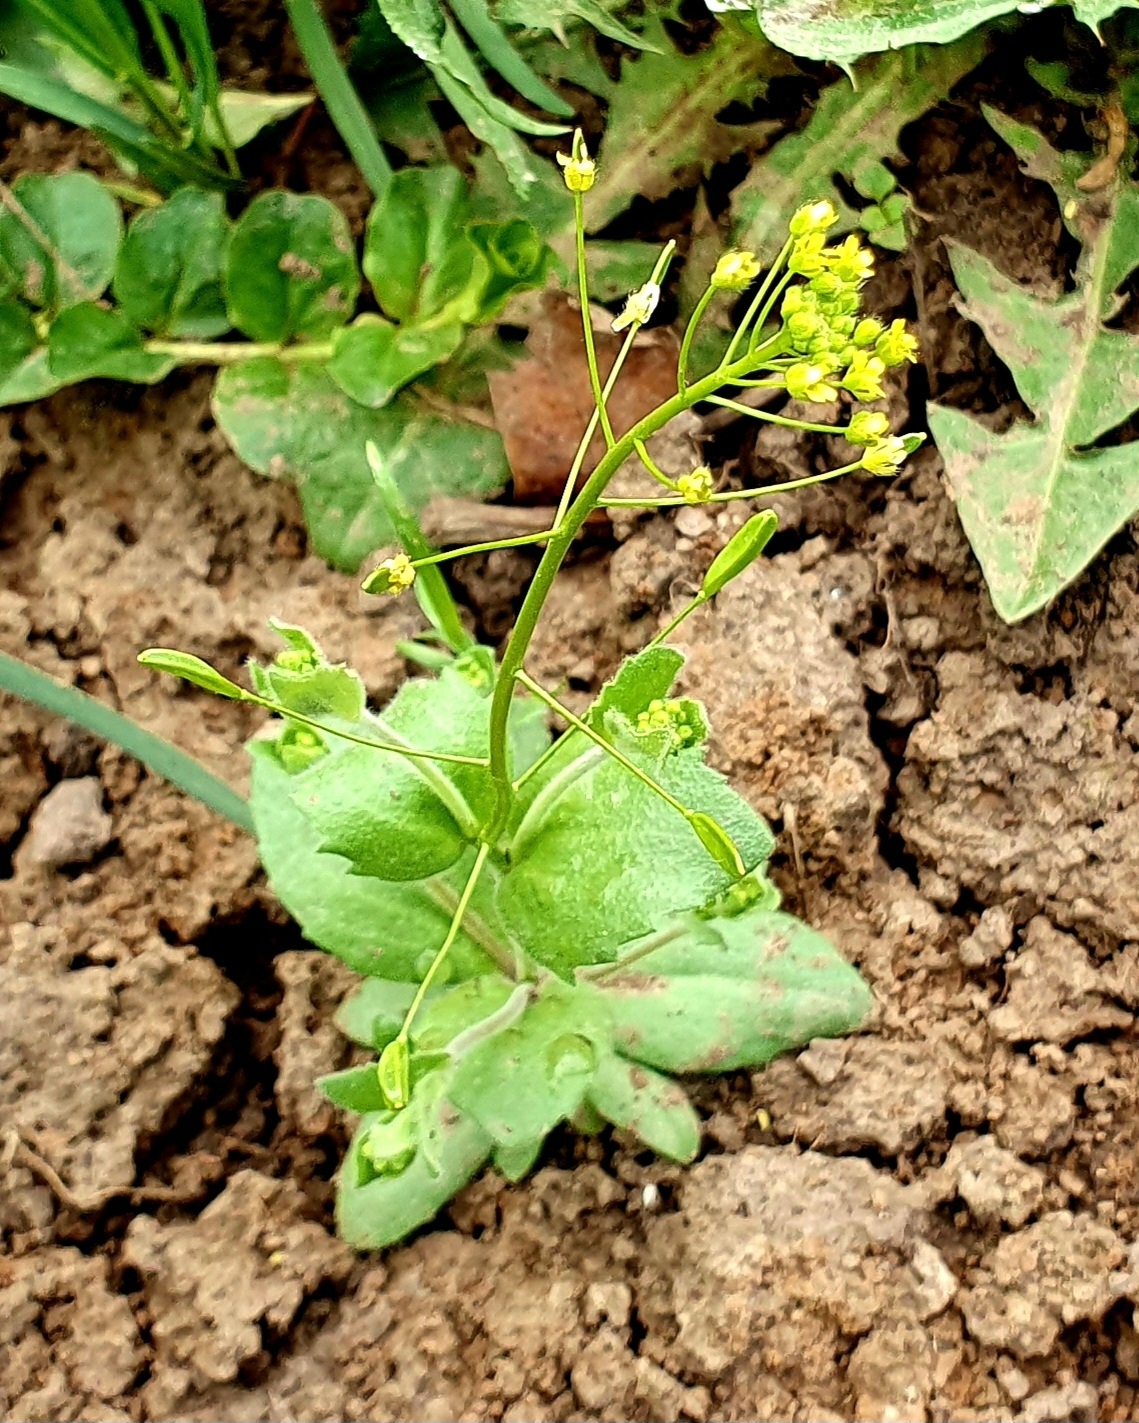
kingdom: Plantae
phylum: Tracheophyta
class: Magnoliopsida
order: Brassicales
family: Brassicaceae
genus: Draba
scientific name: Draba nemorosa
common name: Wood whitlow-grass
